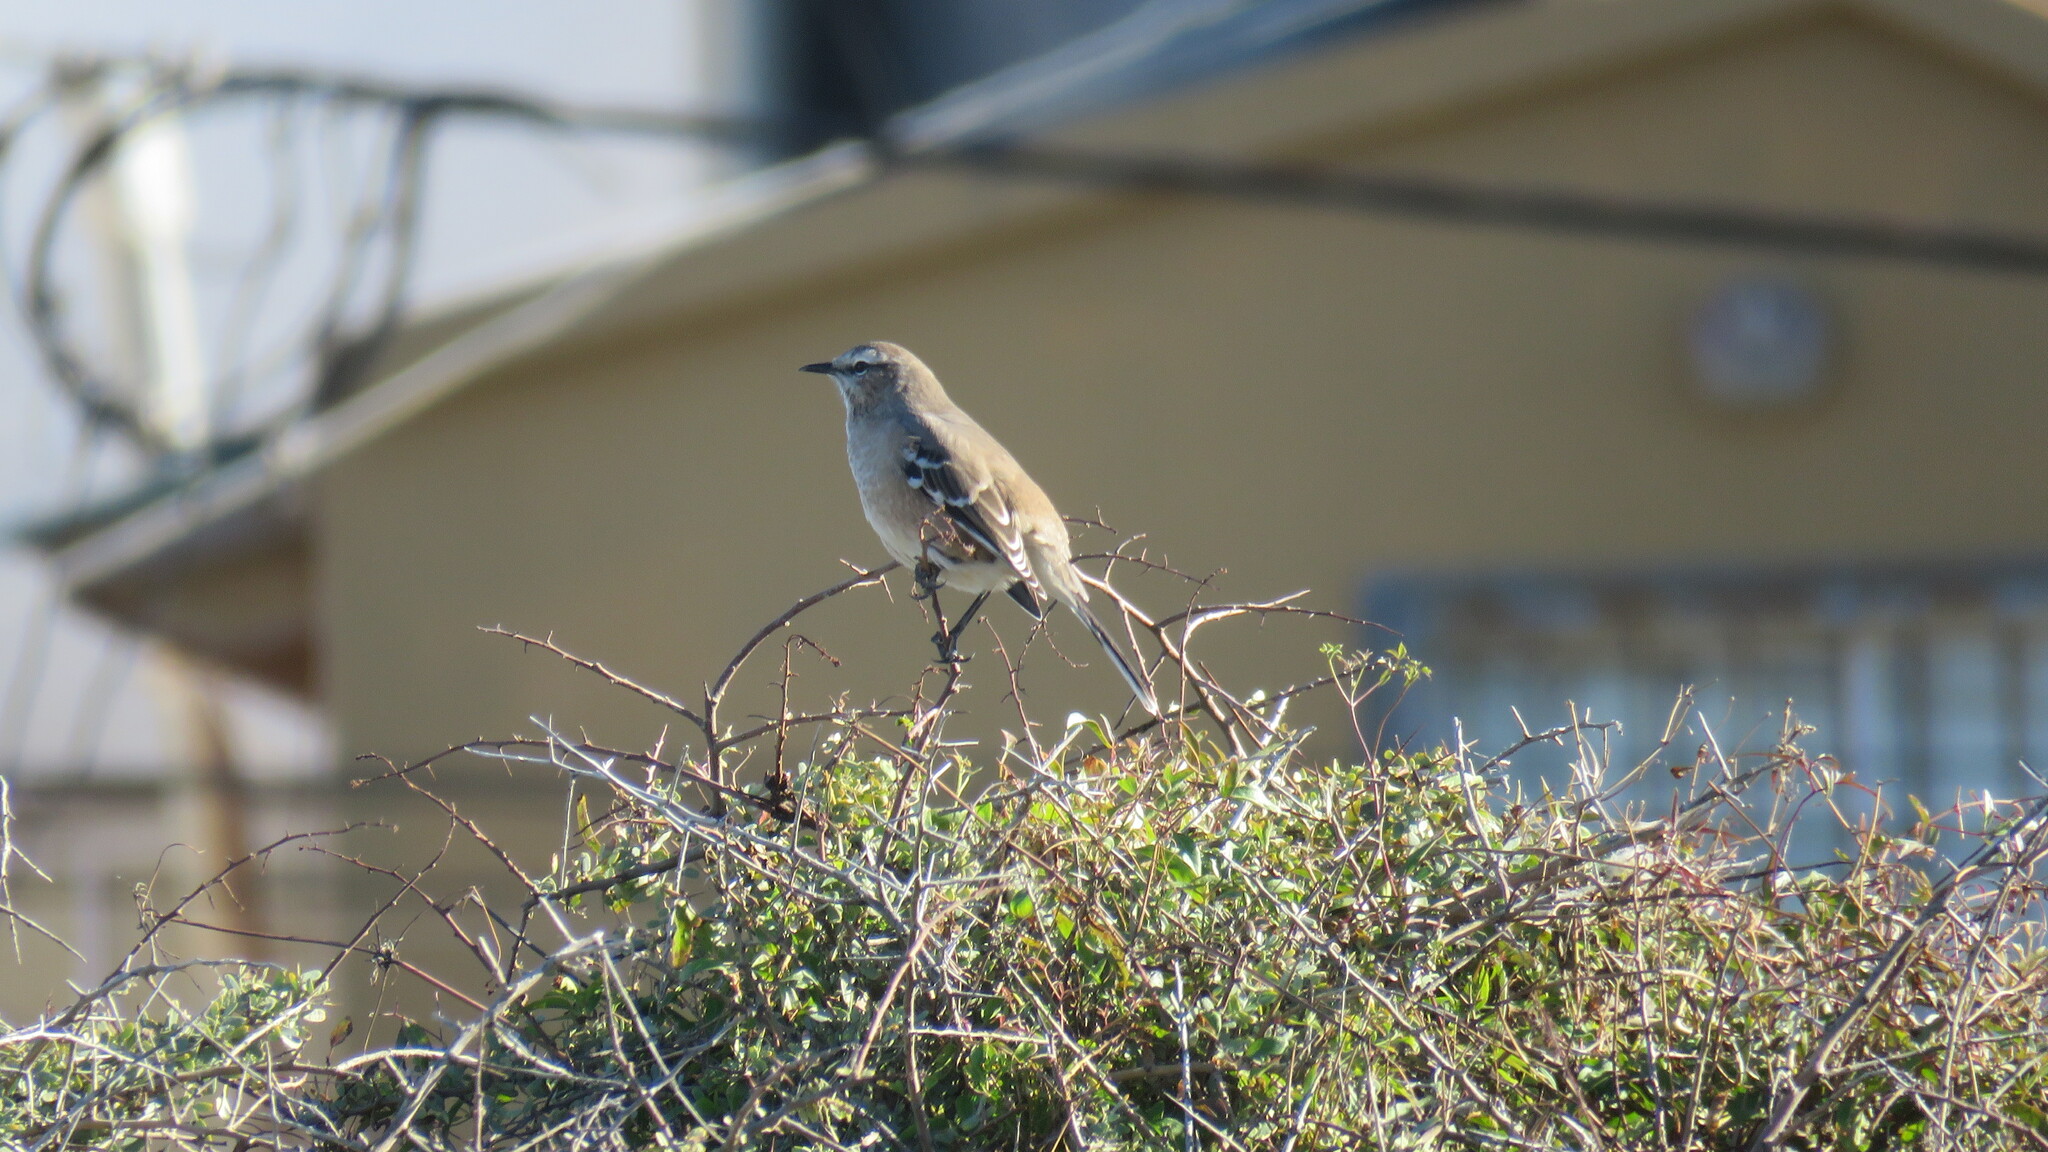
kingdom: Animalia
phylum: Chordata
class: Aves
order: Passeriformes
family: Mimidae
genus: Mimus
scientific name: Mimus patagonicus
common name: Patagonian mockingbird
